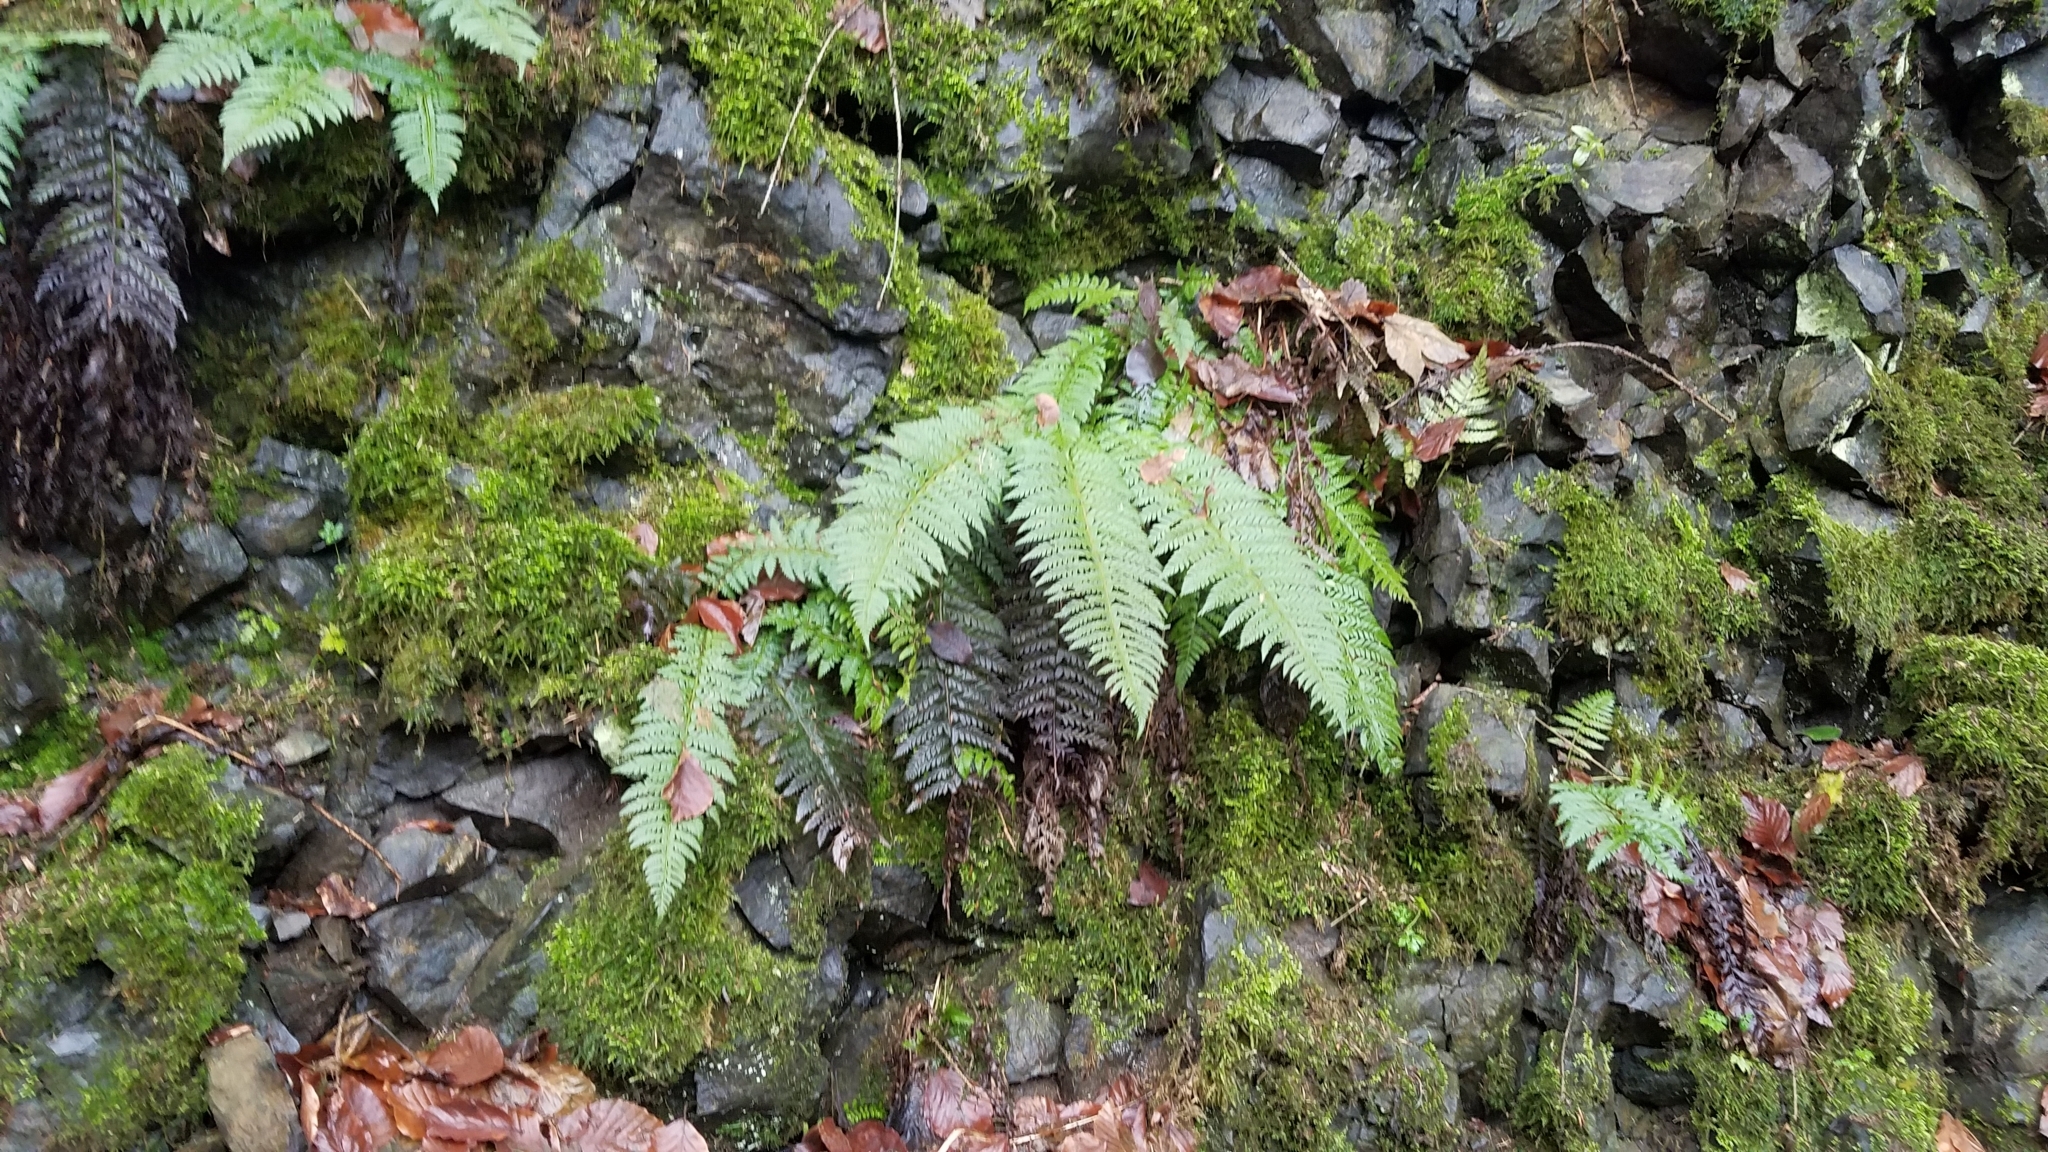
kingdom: Plantae
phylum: Tracheophyta
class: Polypodiopsida
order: Polypodiales
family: Dryopteridaceae
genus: Polystichum
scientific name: Polystichum aculeatum
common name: Hard shield-fern
